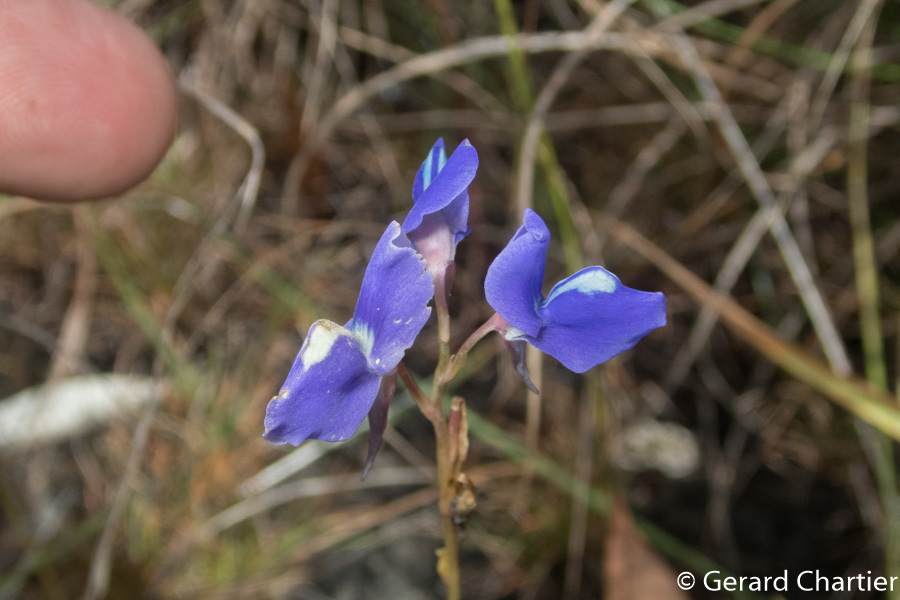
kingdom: Plantae
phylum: Tracheophyta
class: Magnoliopsida
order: Lamiales
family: Lentibulariaceae
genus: Utricularia
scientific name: Utricularia delphinioides
